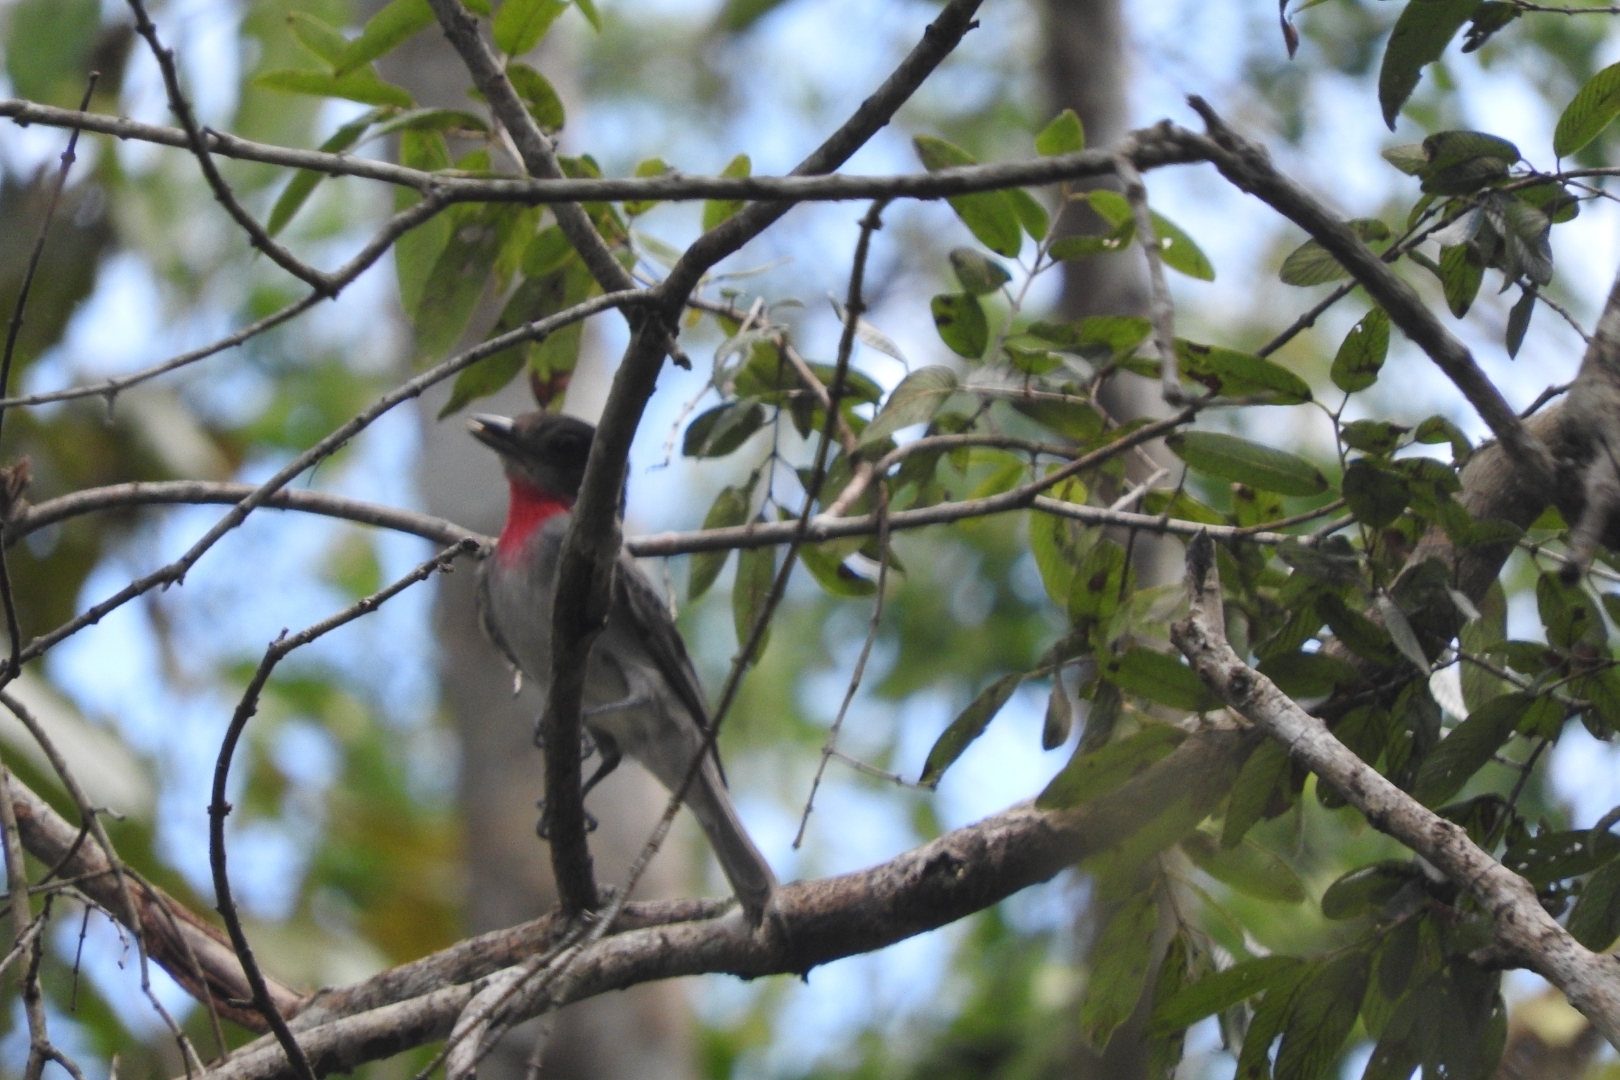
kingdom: Animalia
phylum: Chordata
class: Aves
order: Passeriformes
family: Cotingidae
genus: Pachyramphus
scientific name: Pachyramphus aglaiae
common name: Rose-throated becard
